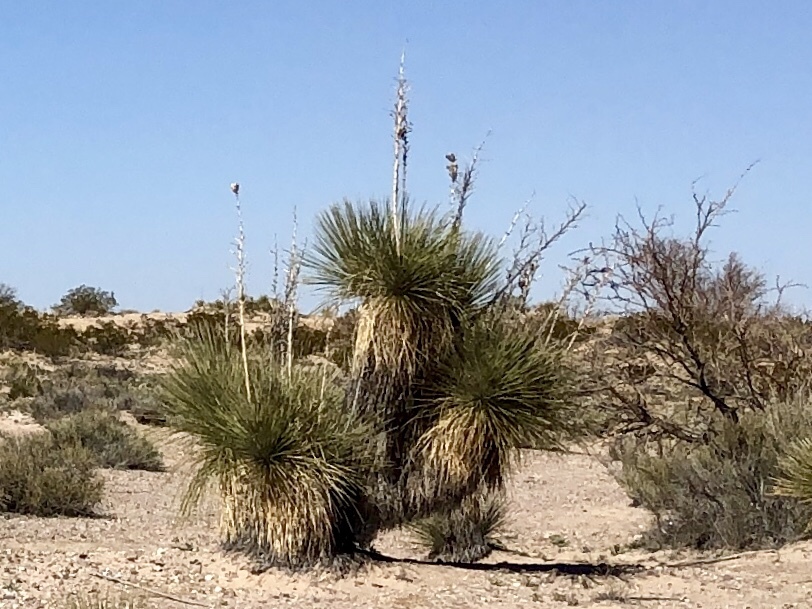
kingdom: Plantae
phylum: Tracheophyta
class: Liliopsida
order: Asparagales
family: Asparagaceae
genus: Yucca
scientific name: Yucca elata
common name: Palmella
